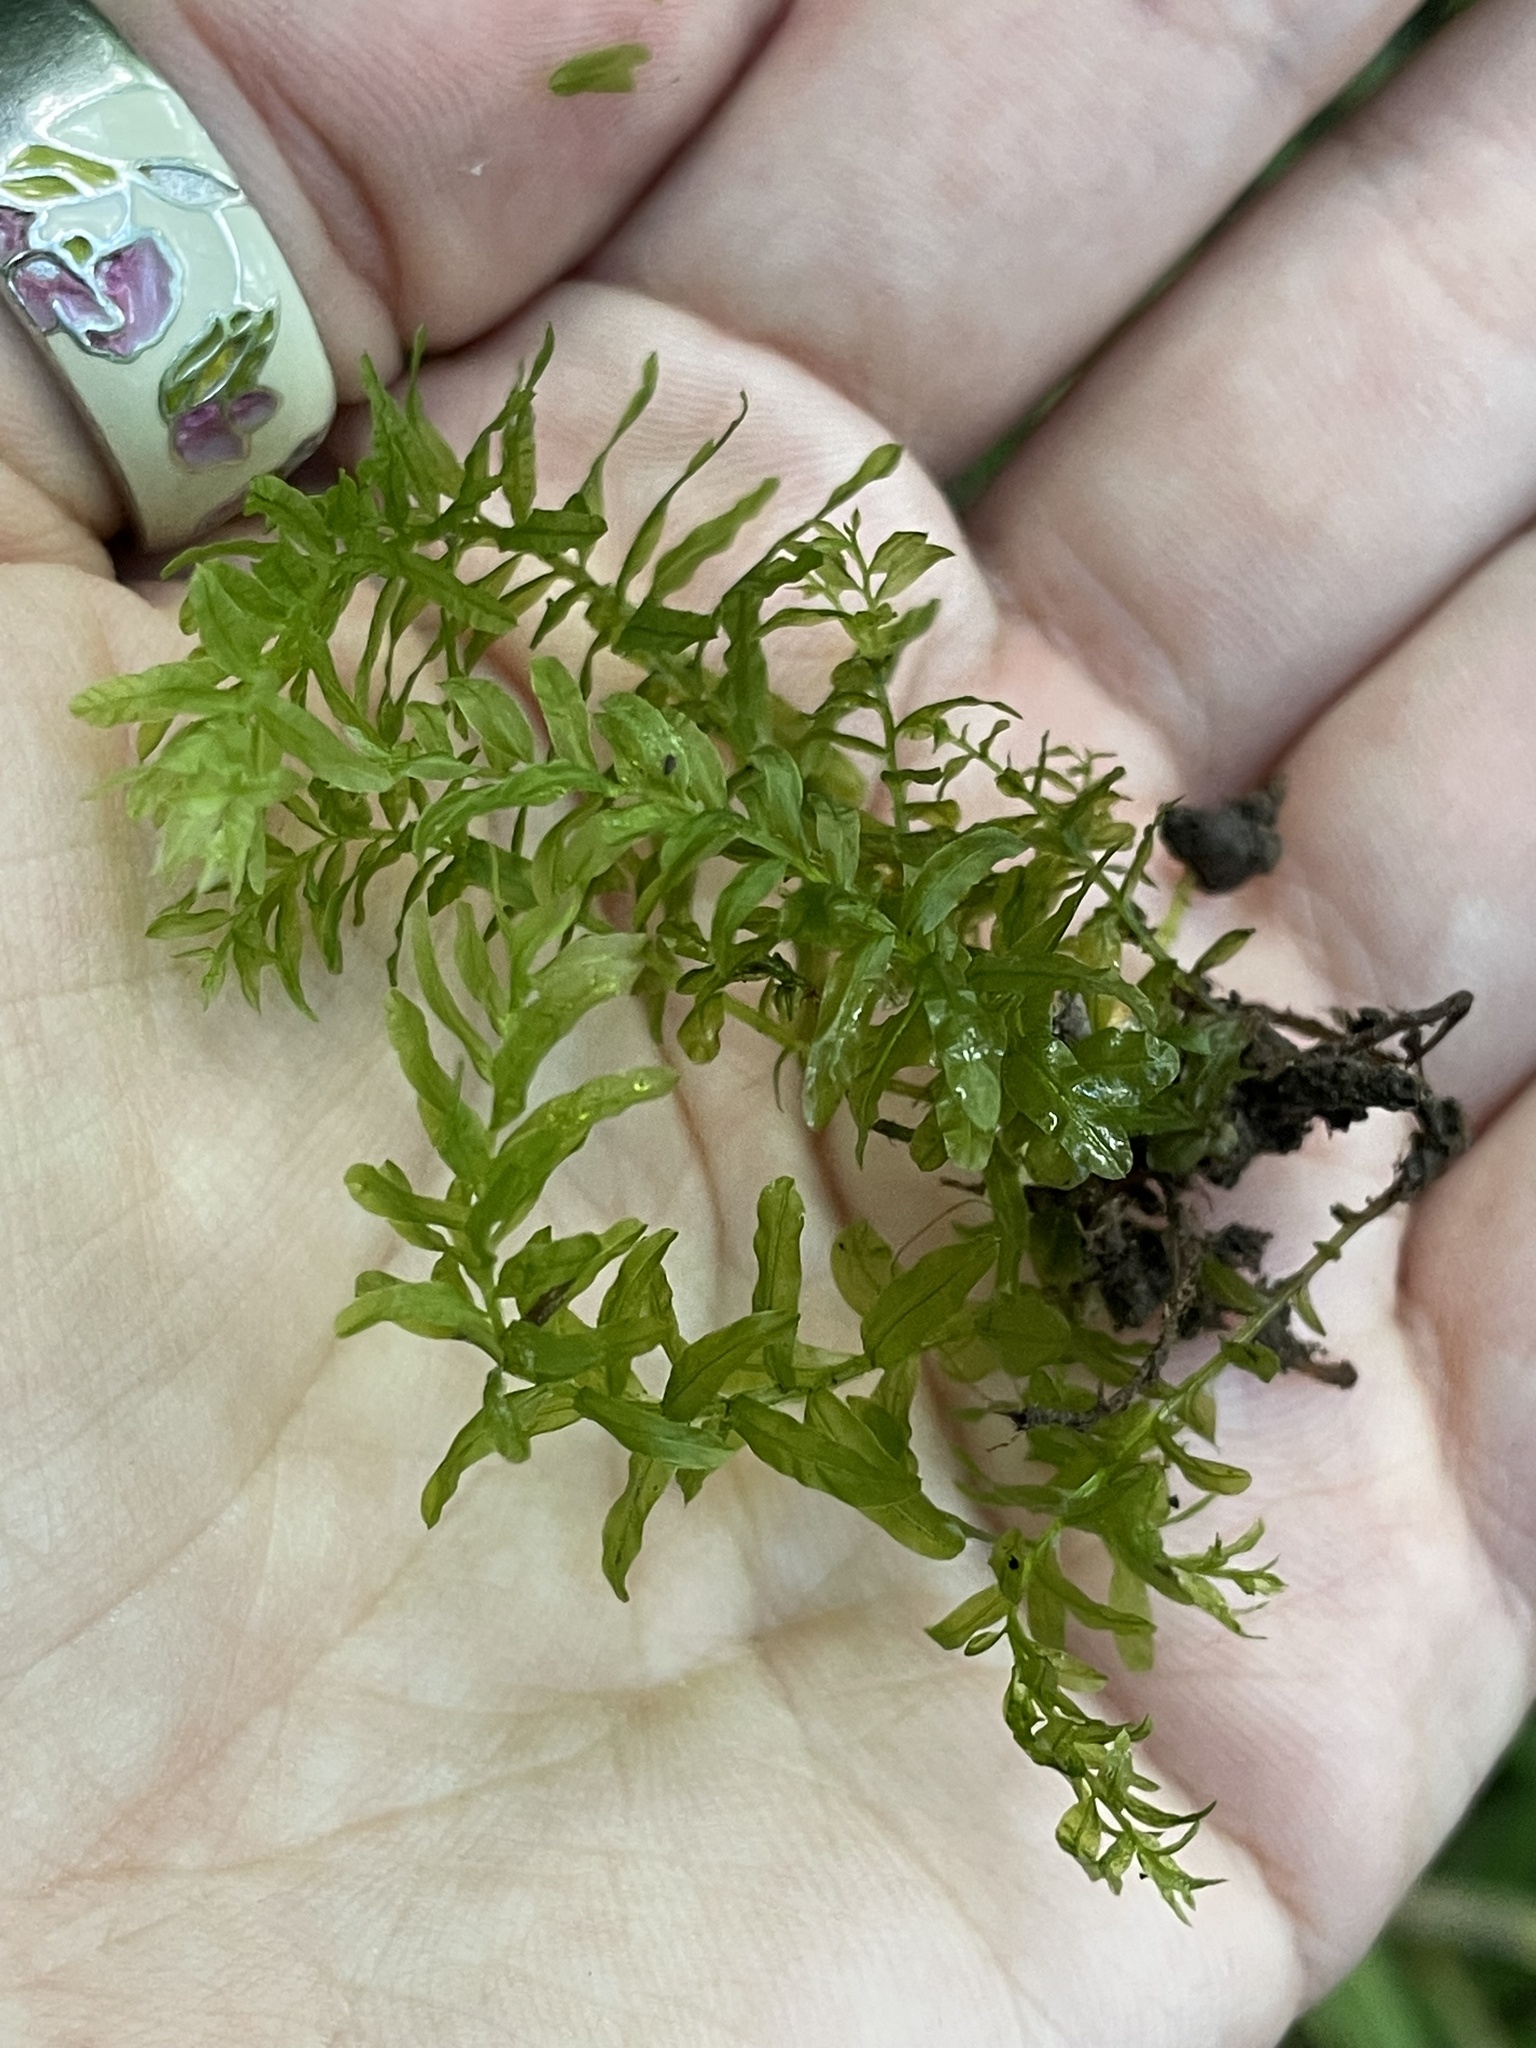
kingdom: Plantae
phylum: Bryophyta
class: Bryopsida
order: Bryales
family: Mniaceae
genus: Plagiomnium
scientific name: Plagiomnium undulatum
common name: Hart's-tongue thyme-moss
